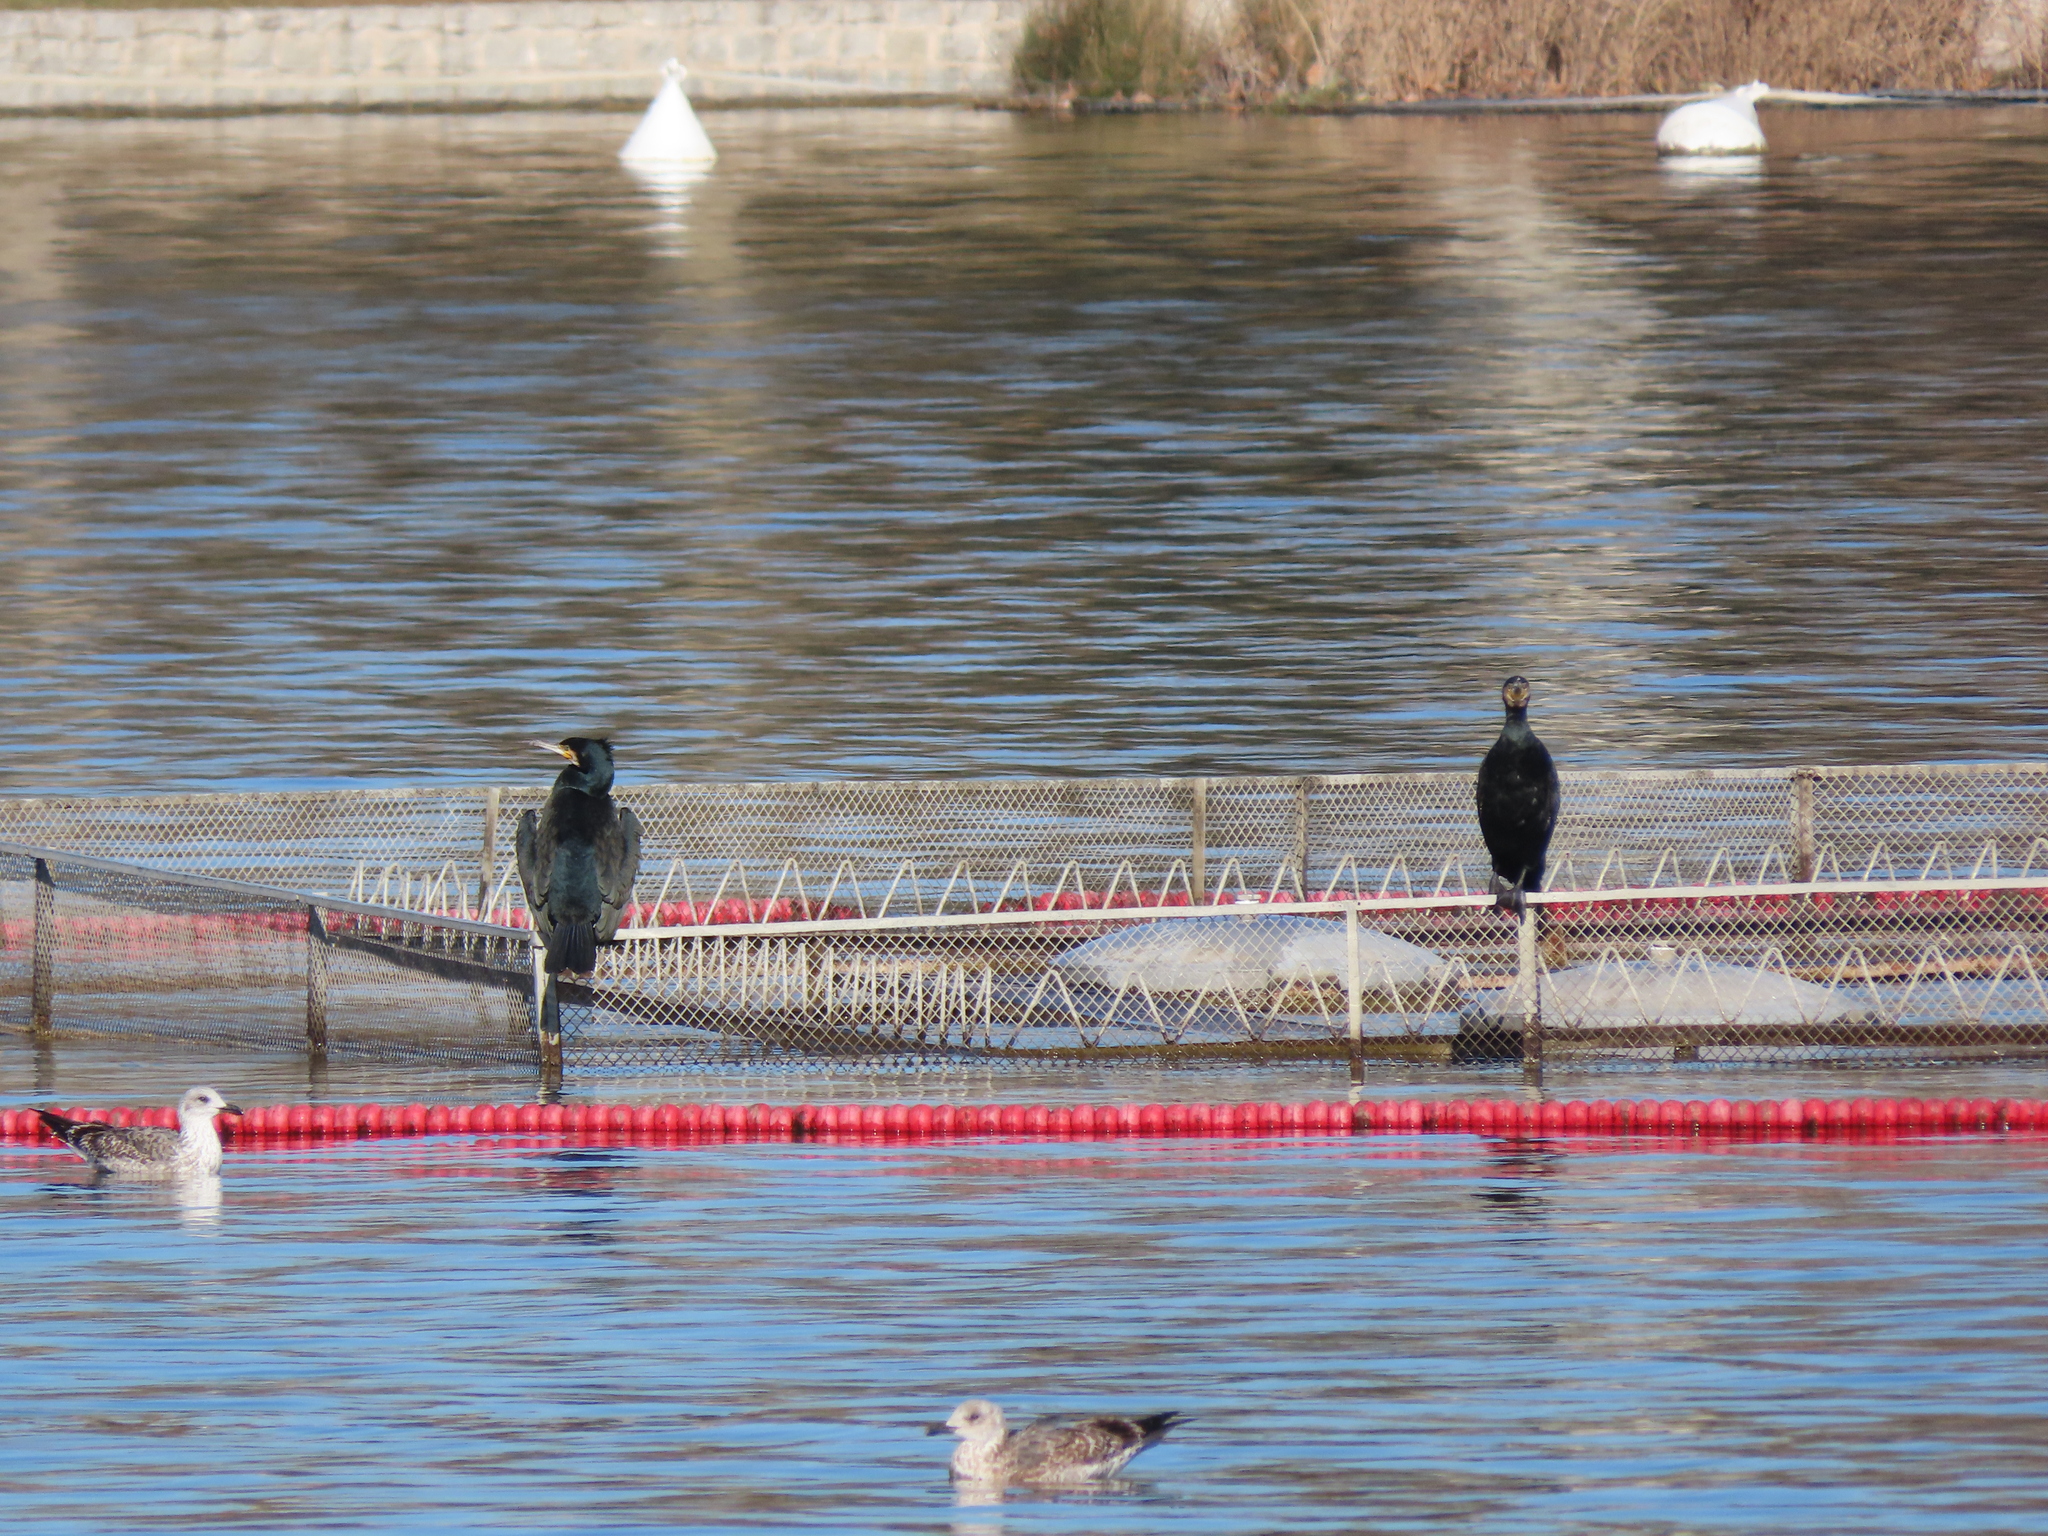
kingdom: Animalia
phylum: Chordata
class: Aves
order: Suliformes
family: Phalacrocoracidae
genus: Phalacrocorax
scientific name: Phalacrocorax carbo
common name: Great cormorant
